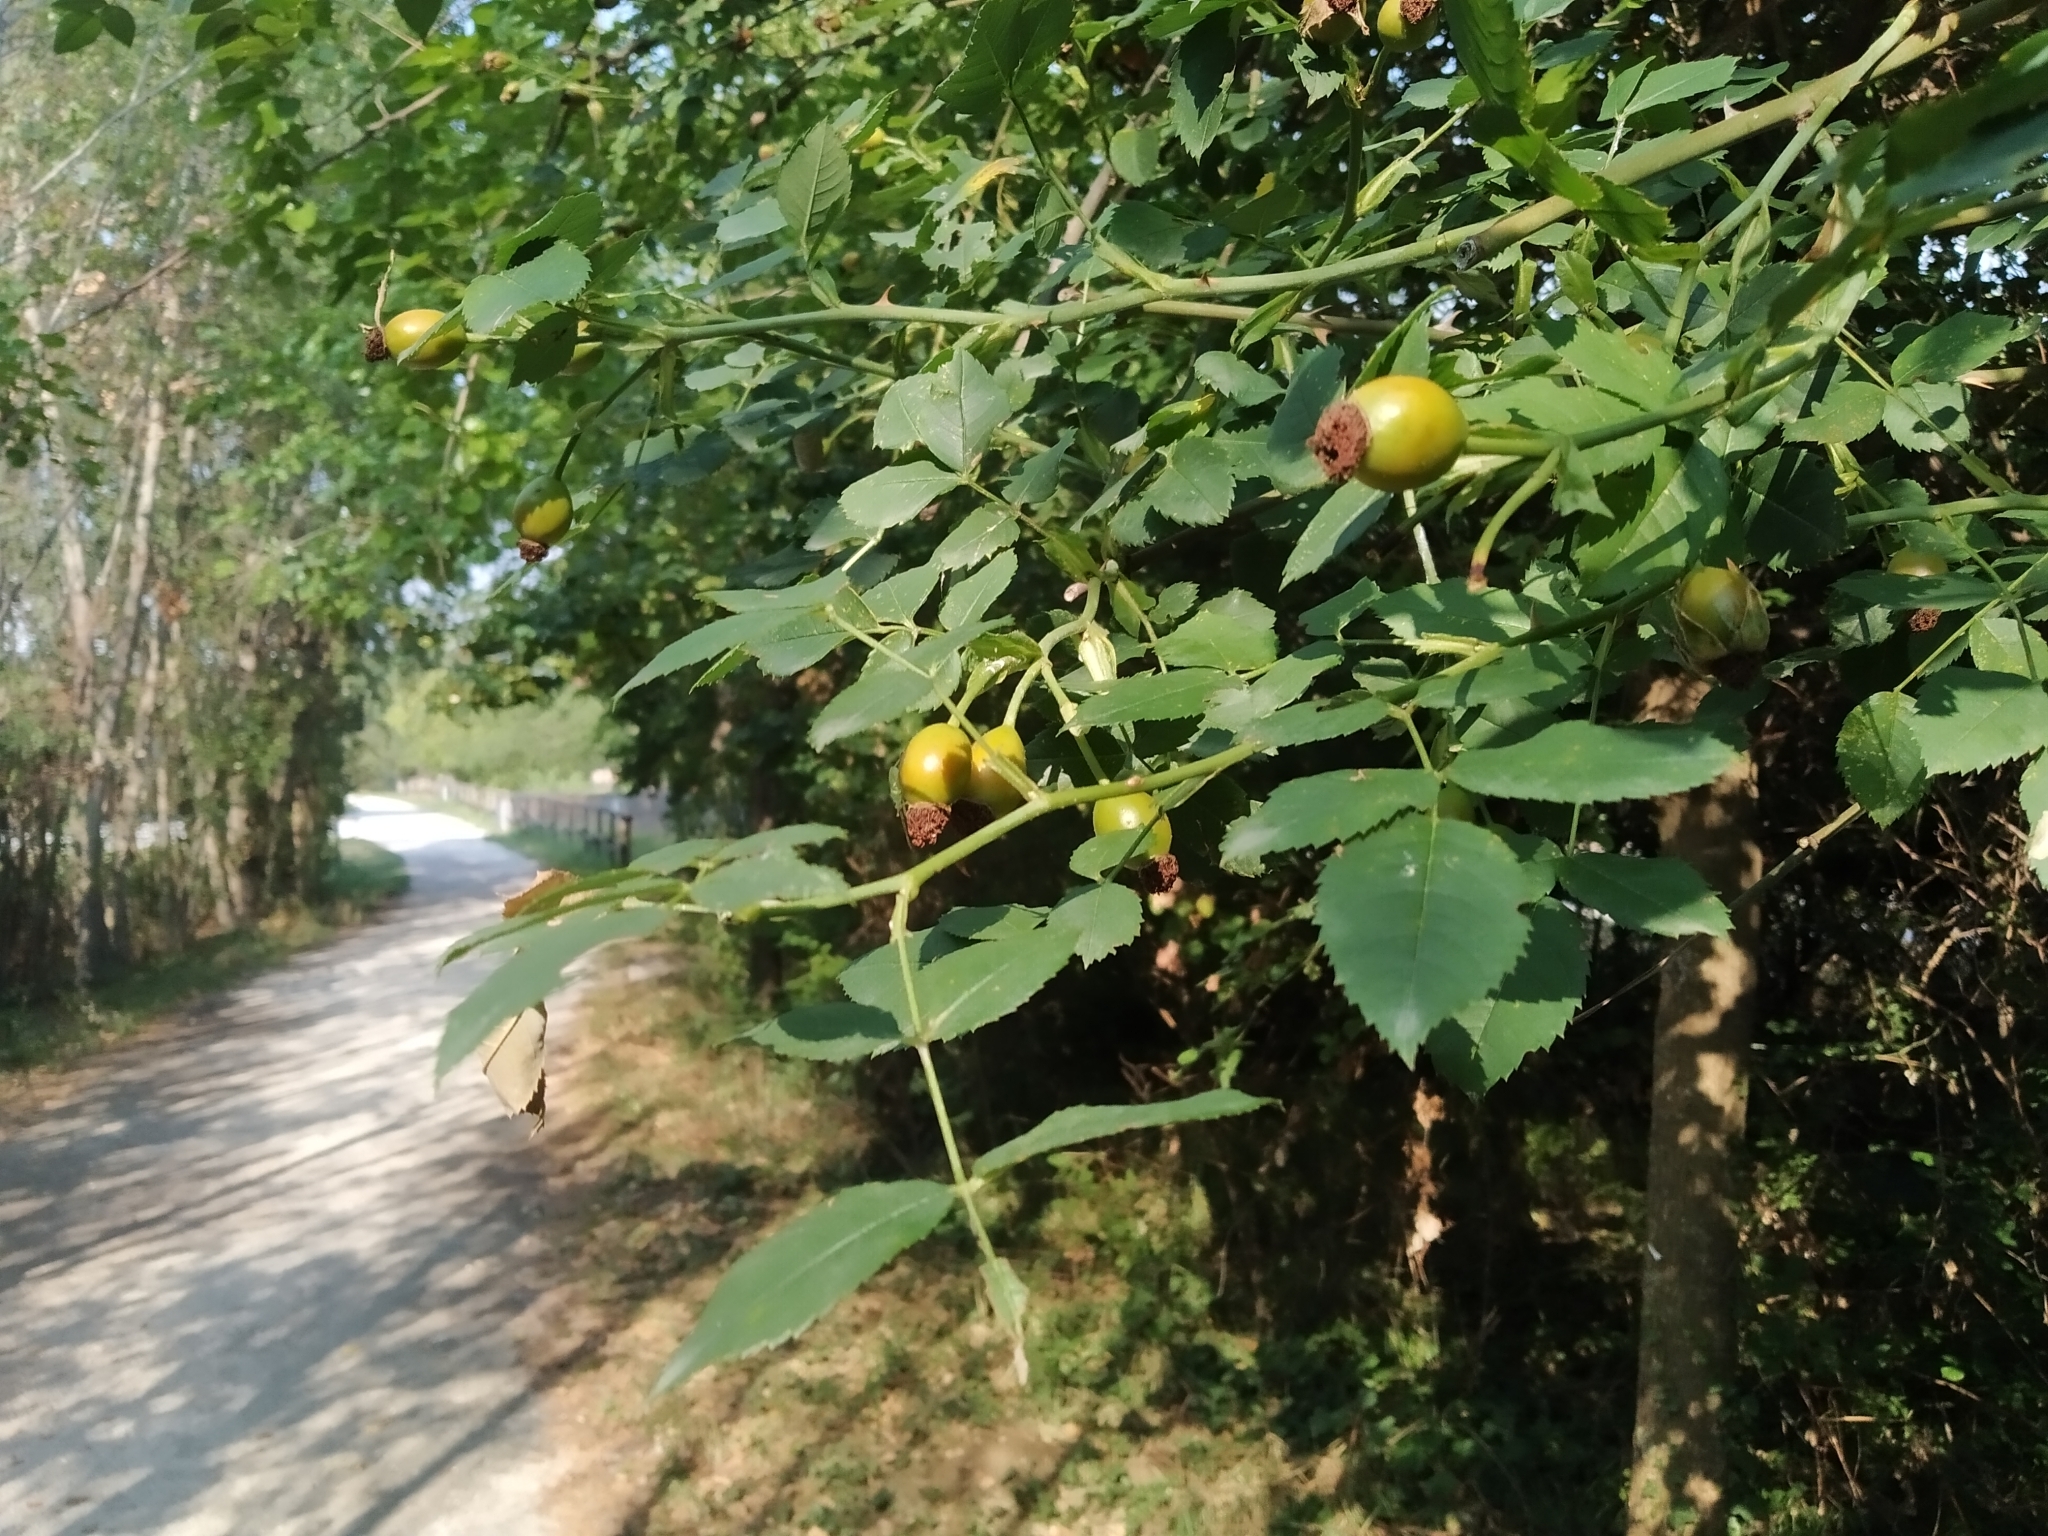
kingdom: Plantae
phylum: Tracheophyta
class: Magnoliopsida
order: Rosales
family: Rosaceae
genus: Rosa
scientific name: Rosa canina
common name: Dog rose
